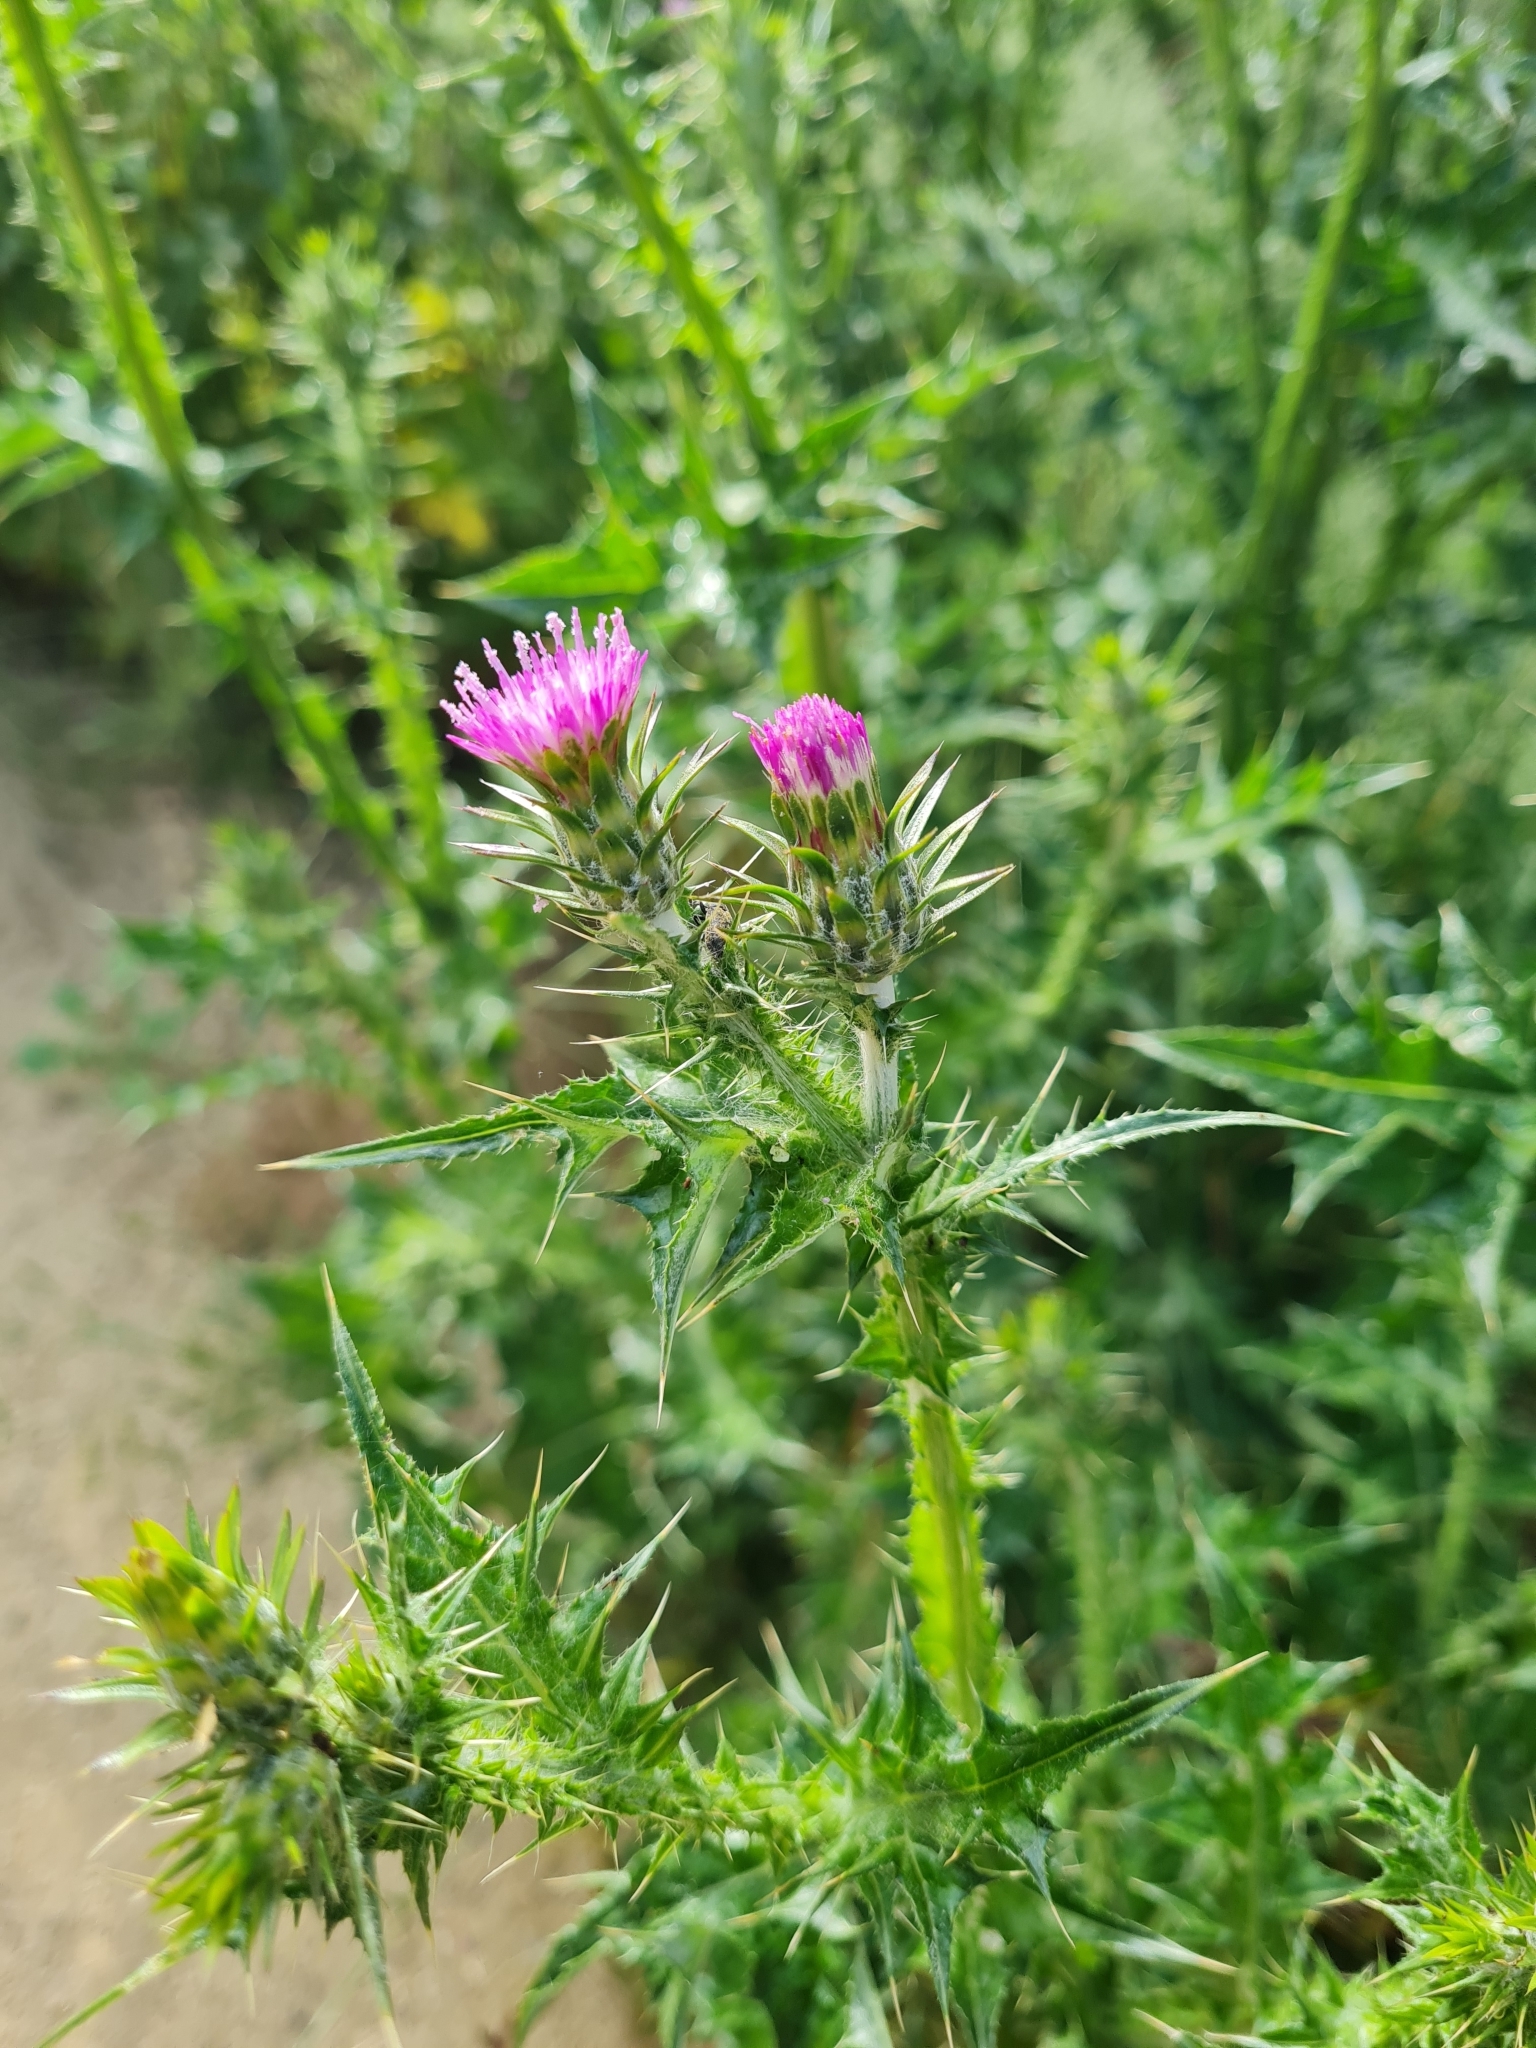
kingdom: Plantae
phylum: Tracheophyta
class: Magnoliopsida
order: Asterales
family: Asteraceae
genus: Carduus
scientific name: Carduus pycnocephalus
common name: Plymouth thistle
